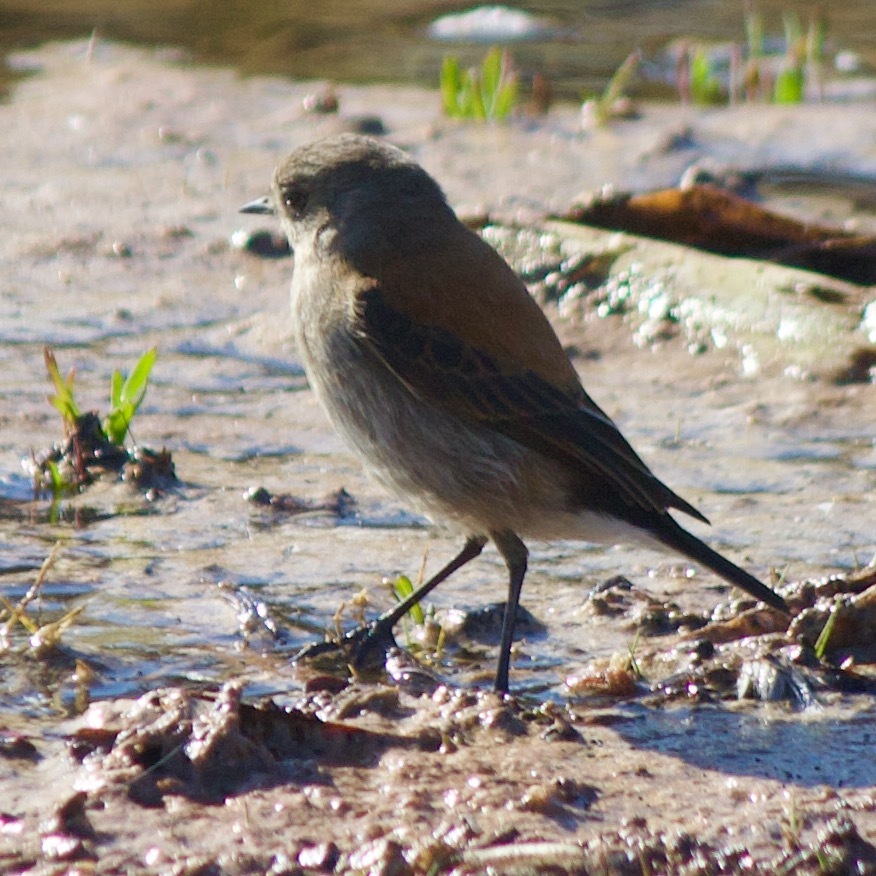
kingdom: Animalia
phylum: Chordata
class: Aves
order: Passeriformes
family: Tyrannidae
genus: Lessonia
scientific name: Lessonia rufa
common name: Austral negrito
